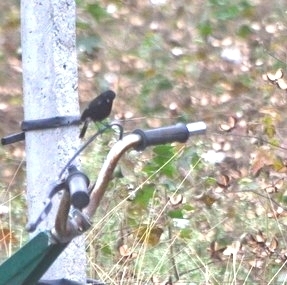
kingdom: Animalia
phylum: Chordata
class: Aves
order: Passeriformes
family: Muscicapidae
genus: Saxicoloides
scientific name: Saxicoloides fulicatus
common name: Indian robin
